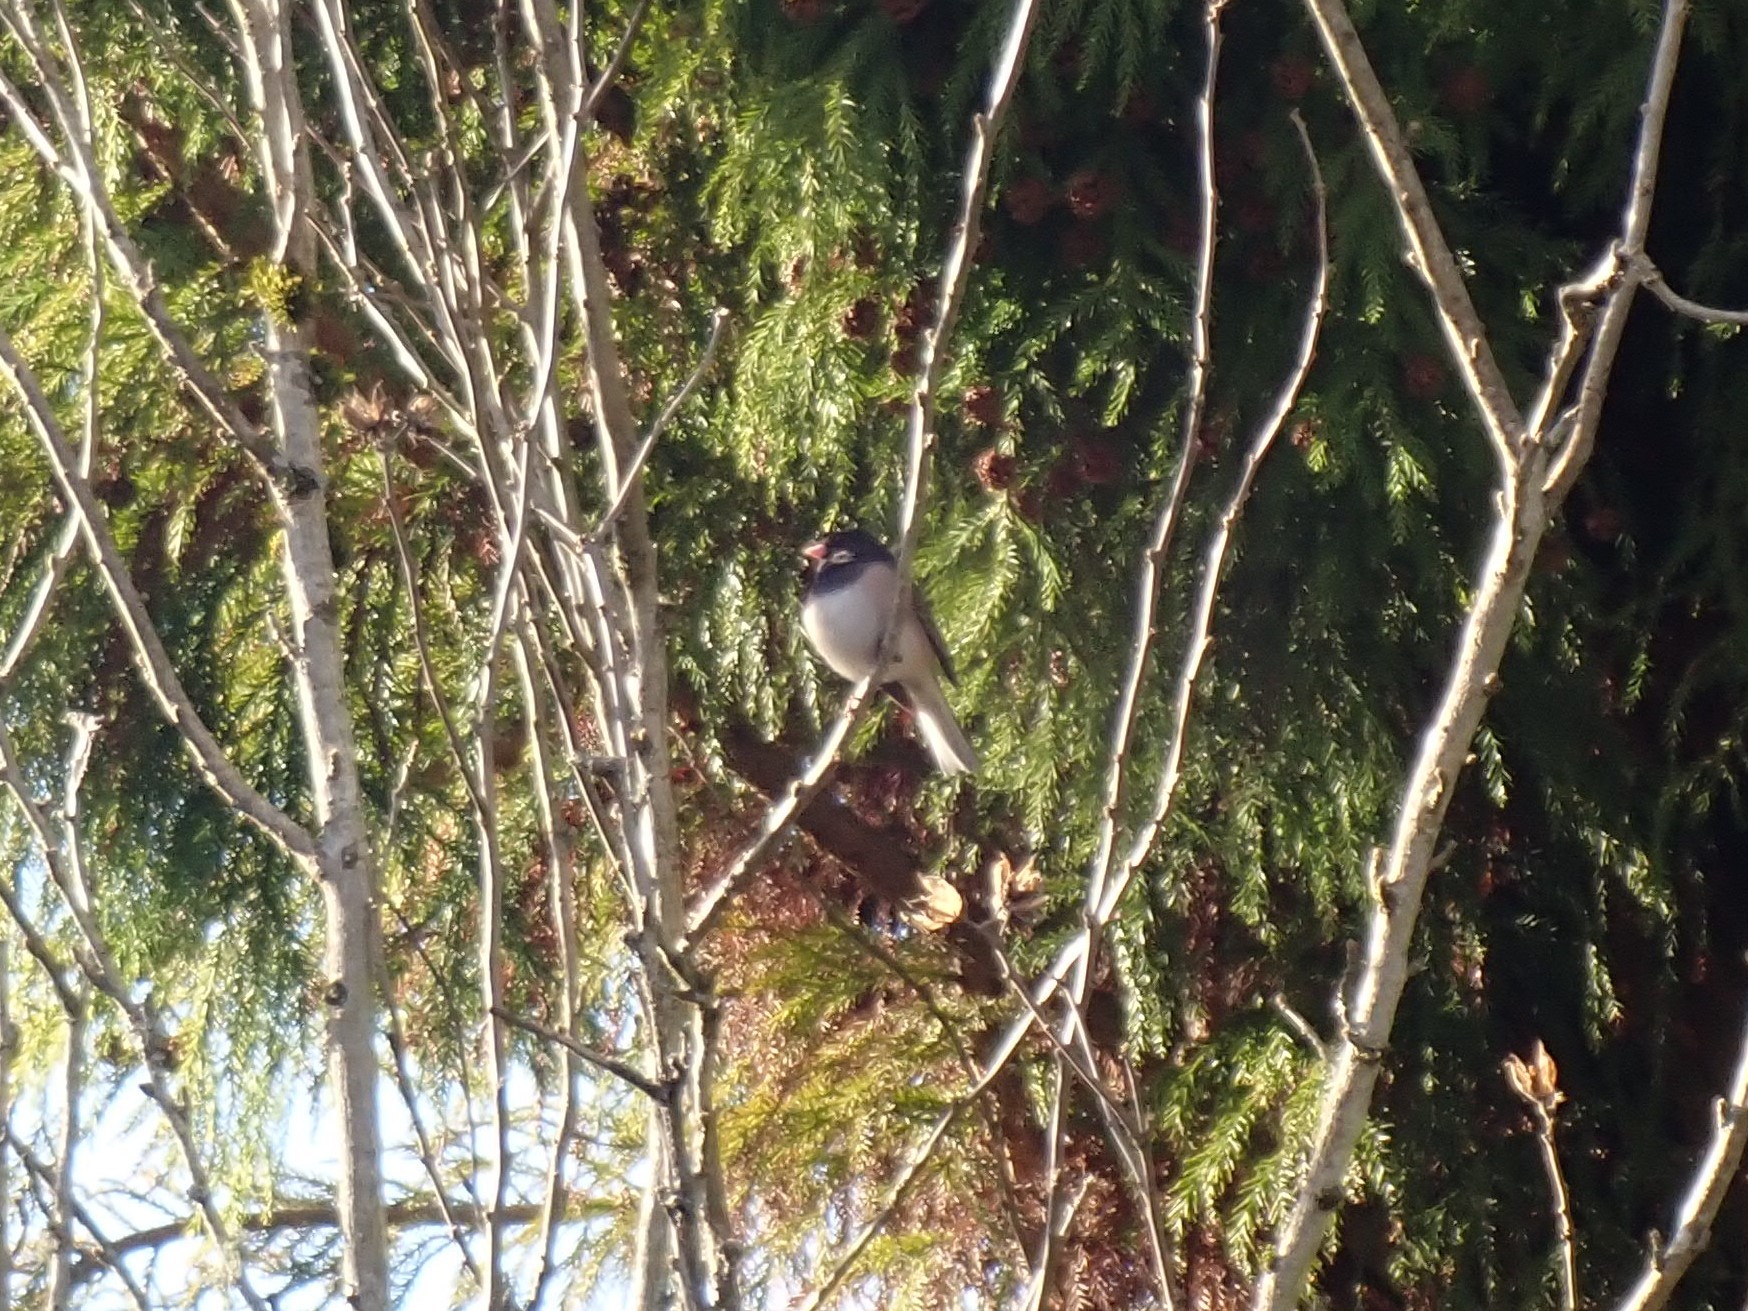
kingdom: Animalia
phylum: Chordata
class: Aves
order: Passeriformes
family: Passerellidae
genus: Junco
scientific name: Junco hyemalis
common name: Dark-eyed junco
